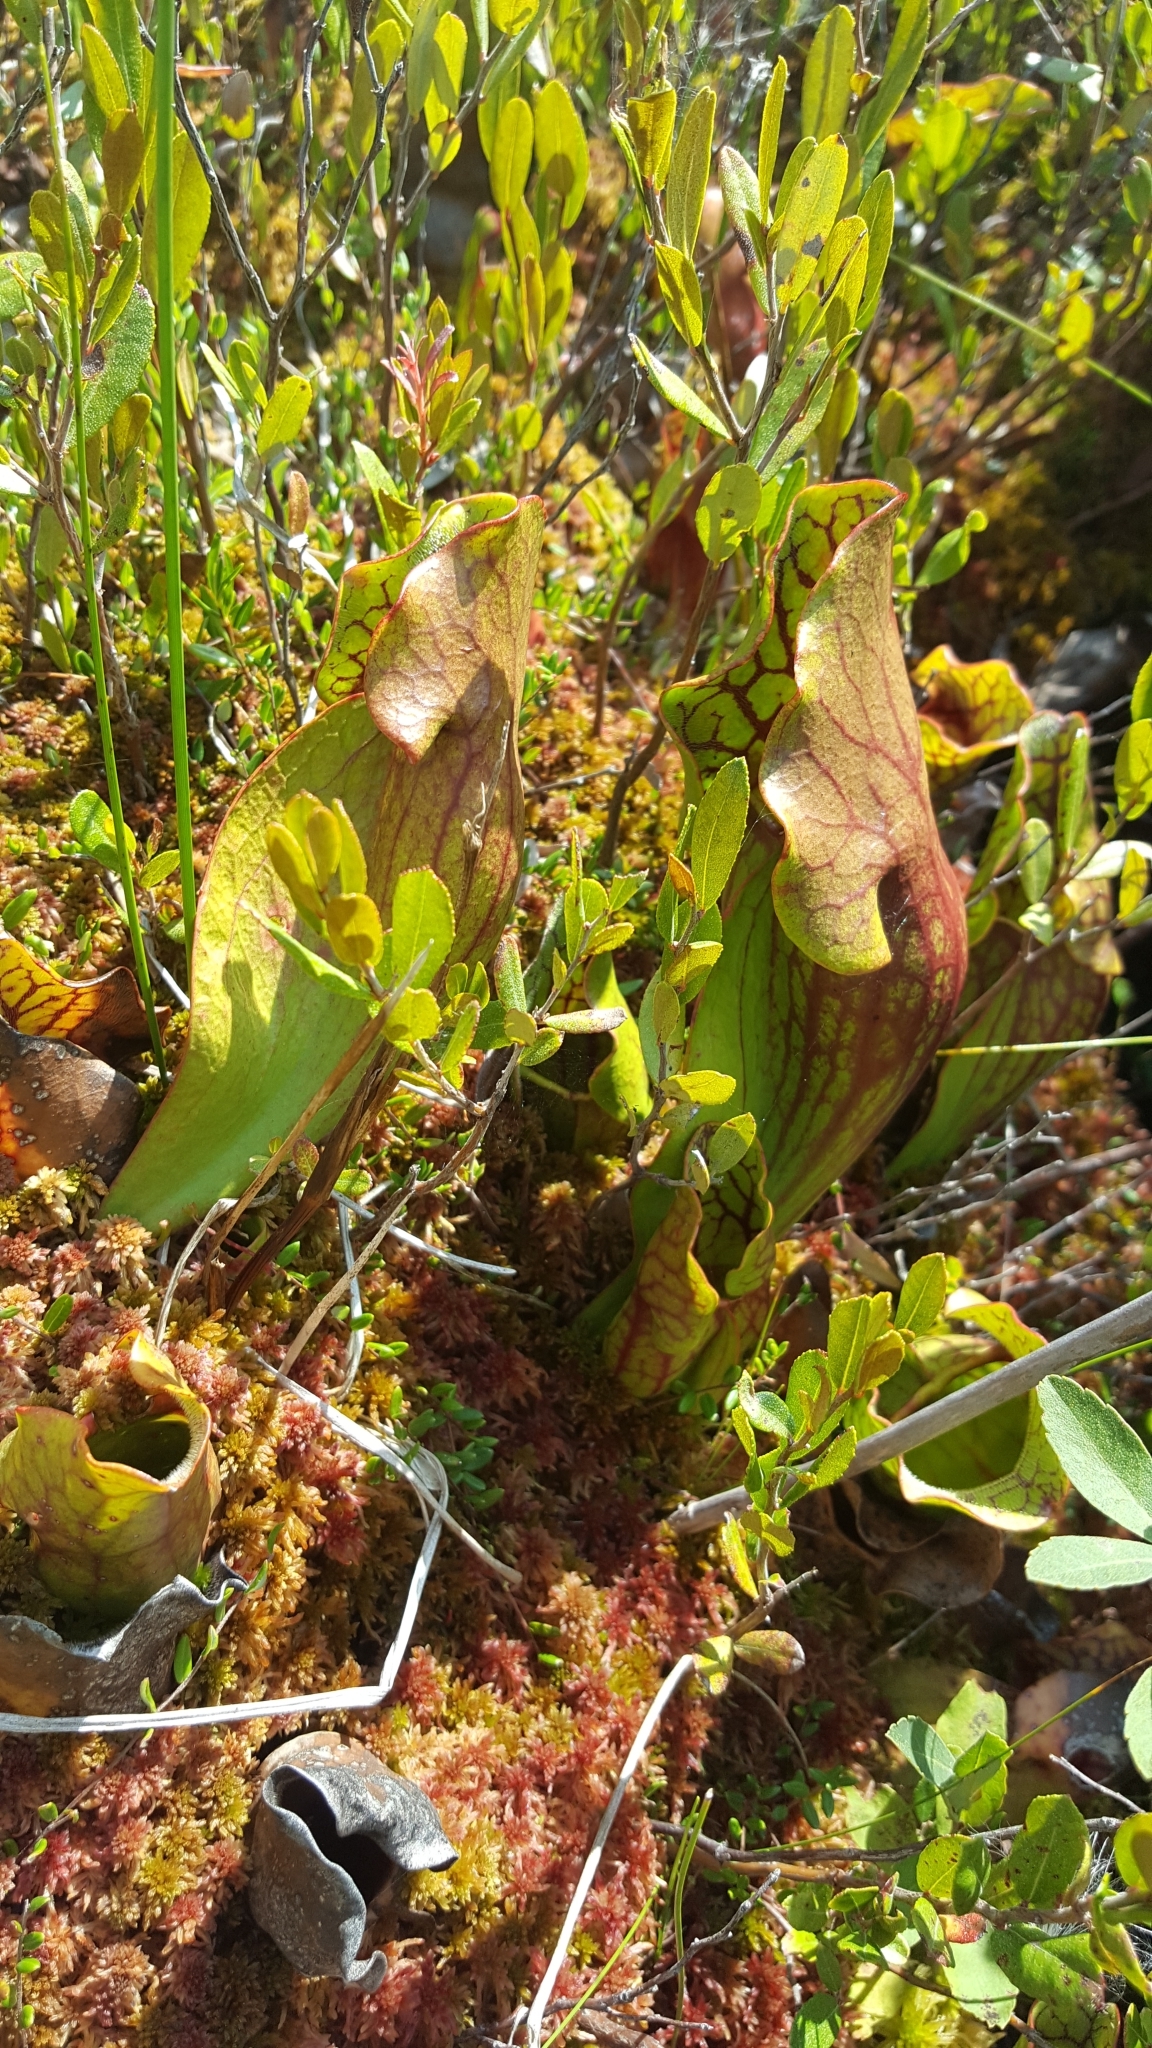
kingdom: Plantae
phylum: Tracheophyta
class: Magnoliopsida
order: Ericales
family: Sarraceniaceae
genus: Sarracenia
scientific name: Sarracenia purpurea
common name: Pitcherplant
